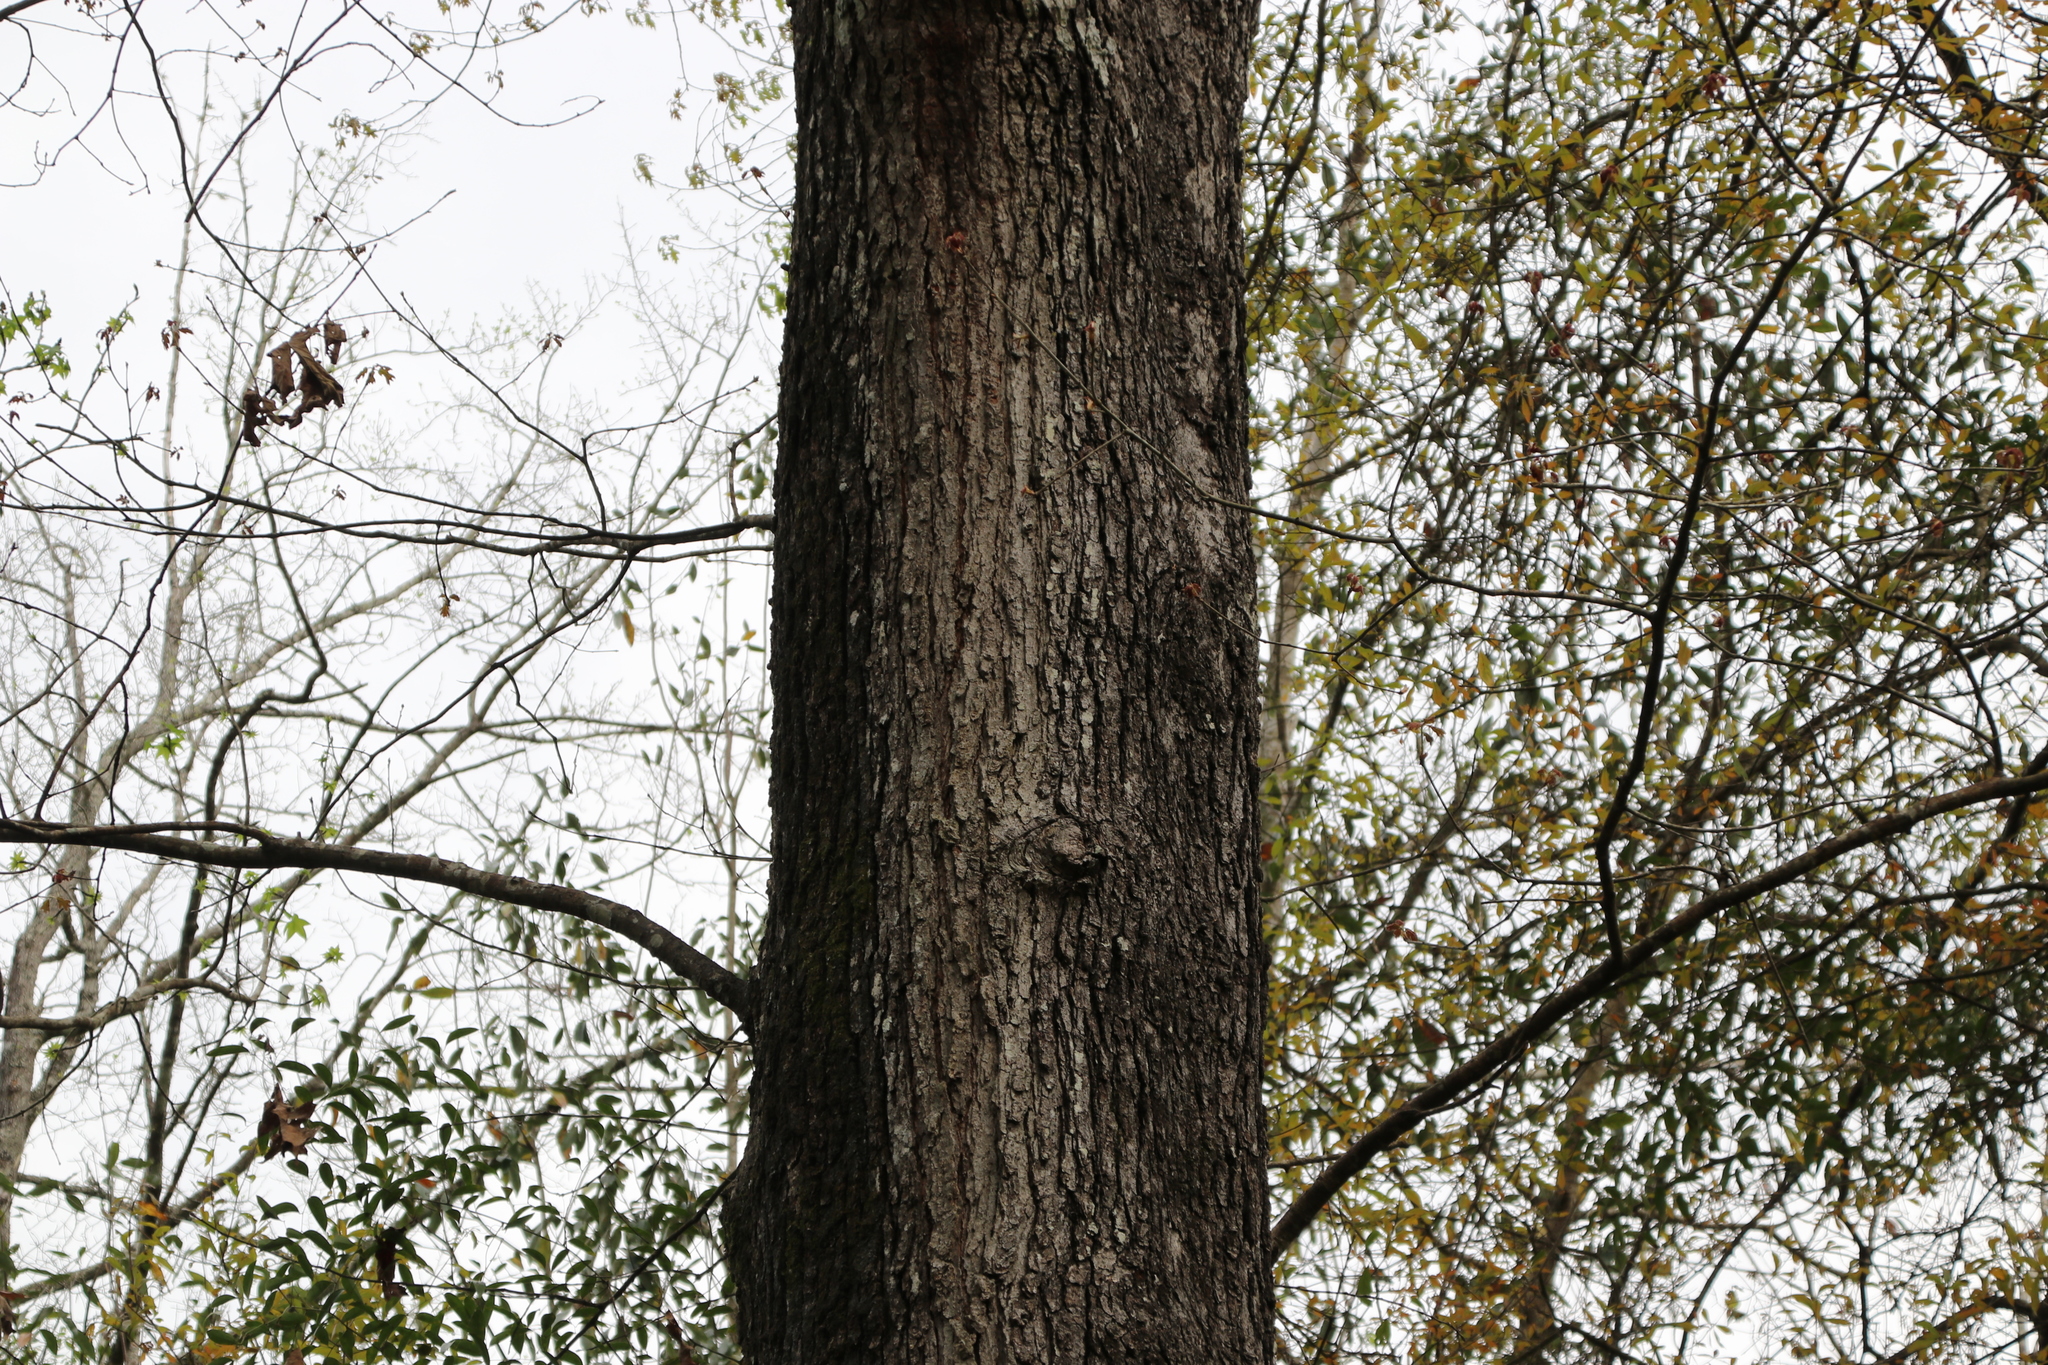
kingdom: Plantae
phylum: Tracheophyta
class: Magnoliopsida
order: Fagales
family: Fagaceae
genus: Quercus
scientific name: Quercus falcata
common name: Southern red oak
